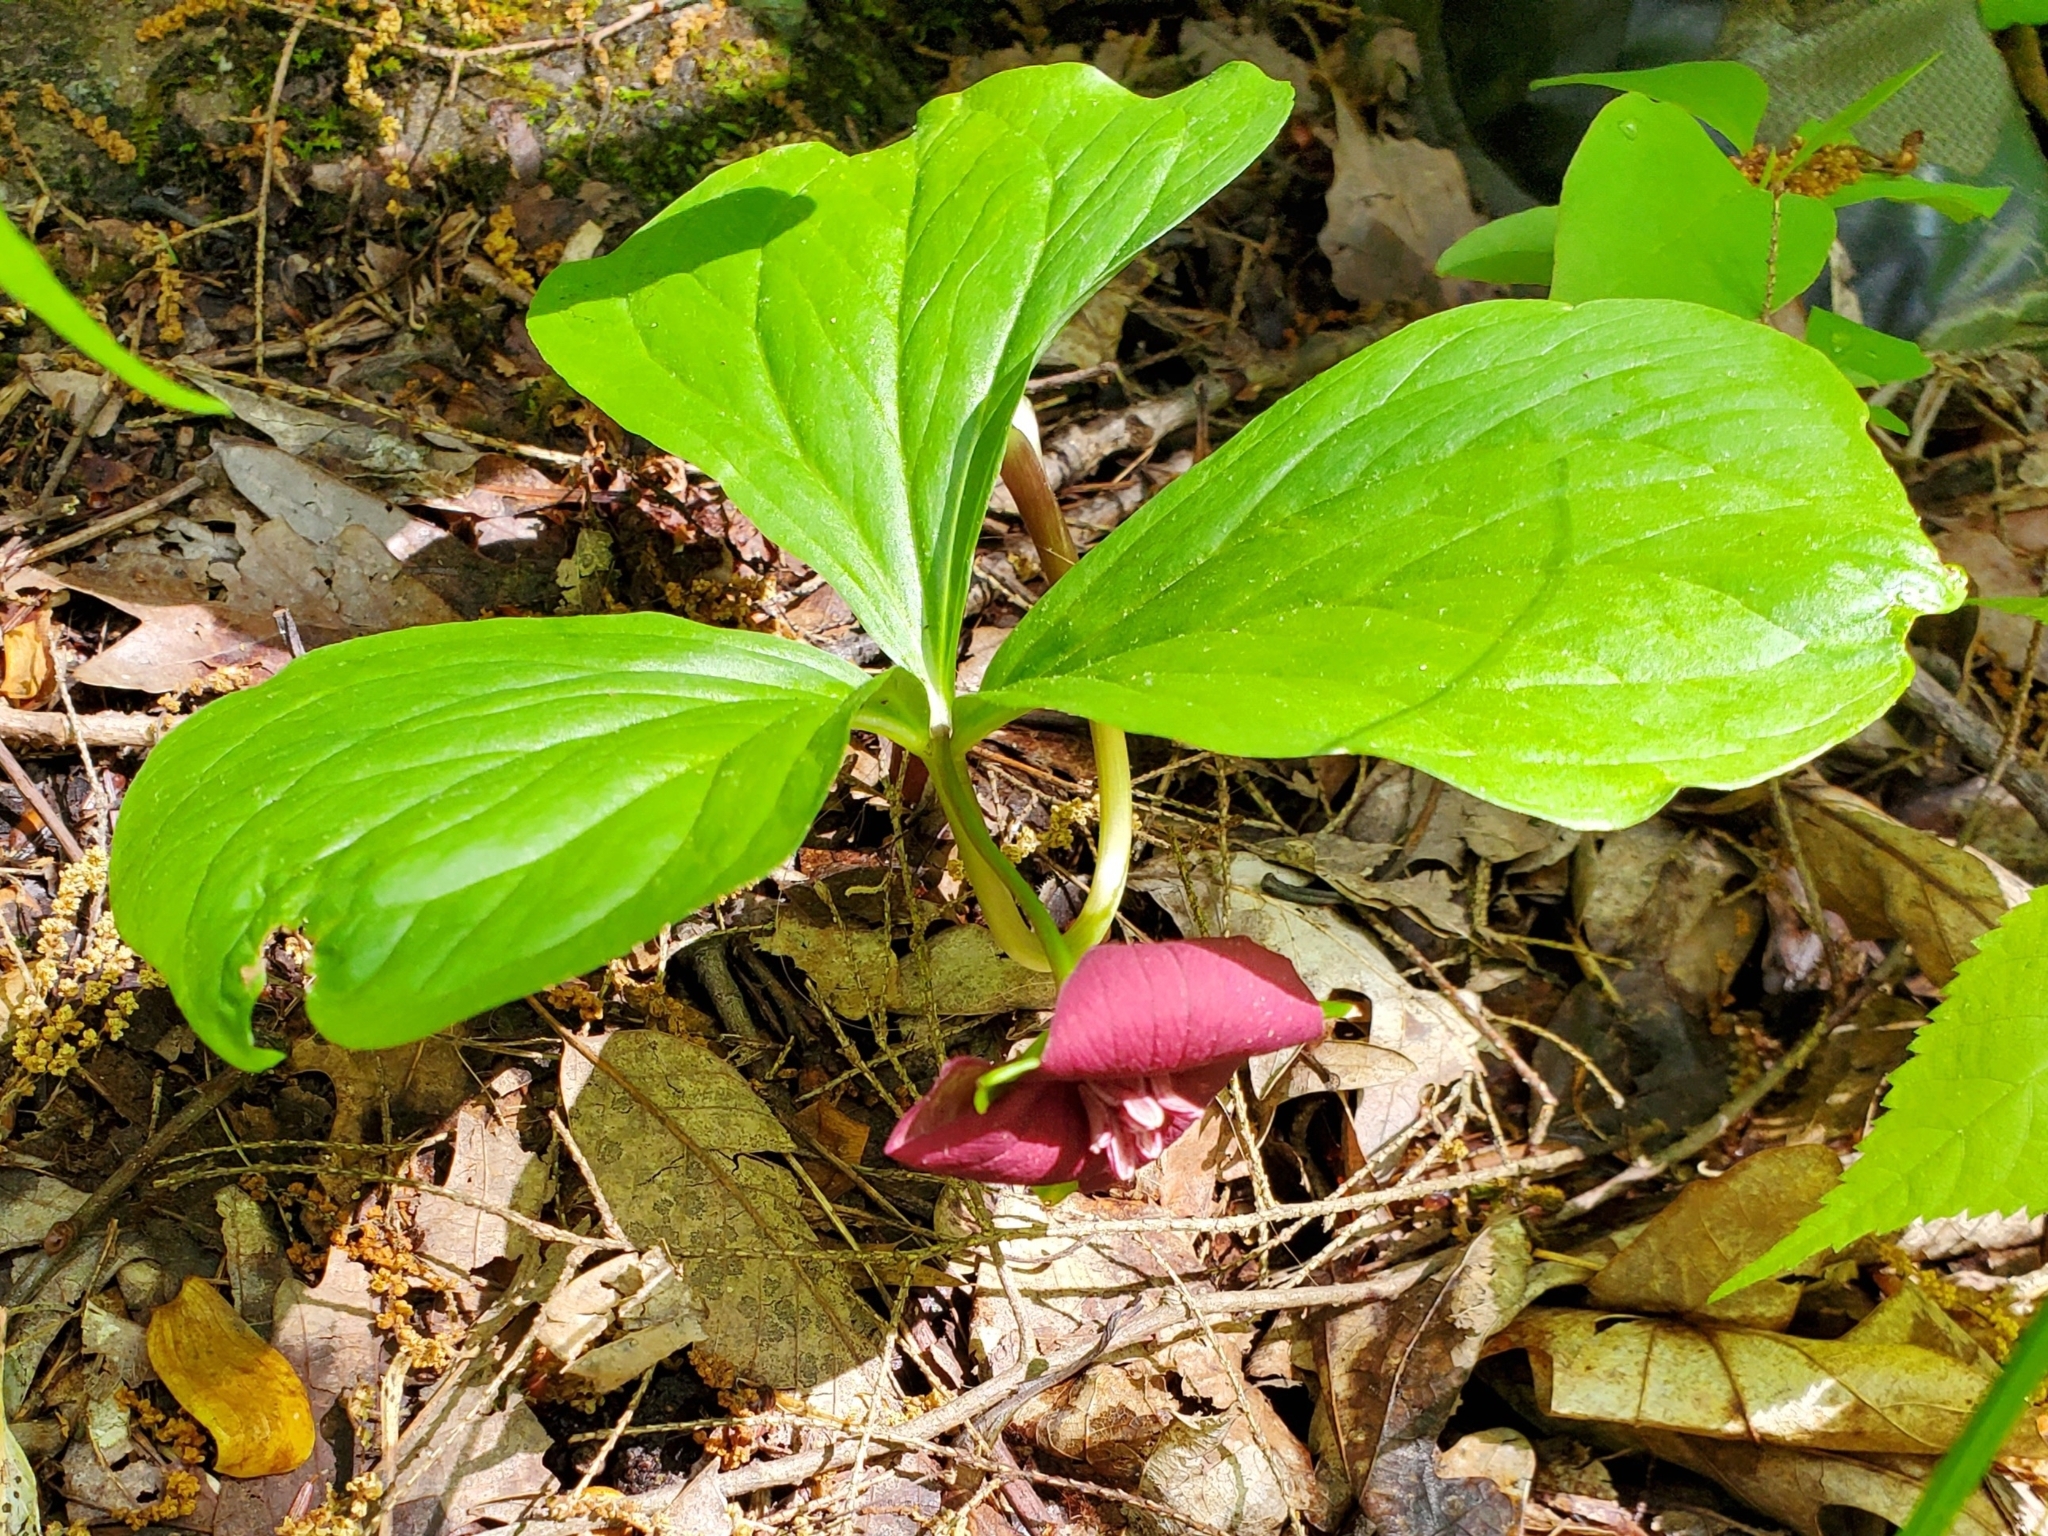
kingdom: Plantae
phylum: Tracheophyta
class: Liliopsida
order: Liliales
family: Melanthiaceae
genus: Trillium
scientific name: Trillium vaseyi
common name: Sweet trillium
